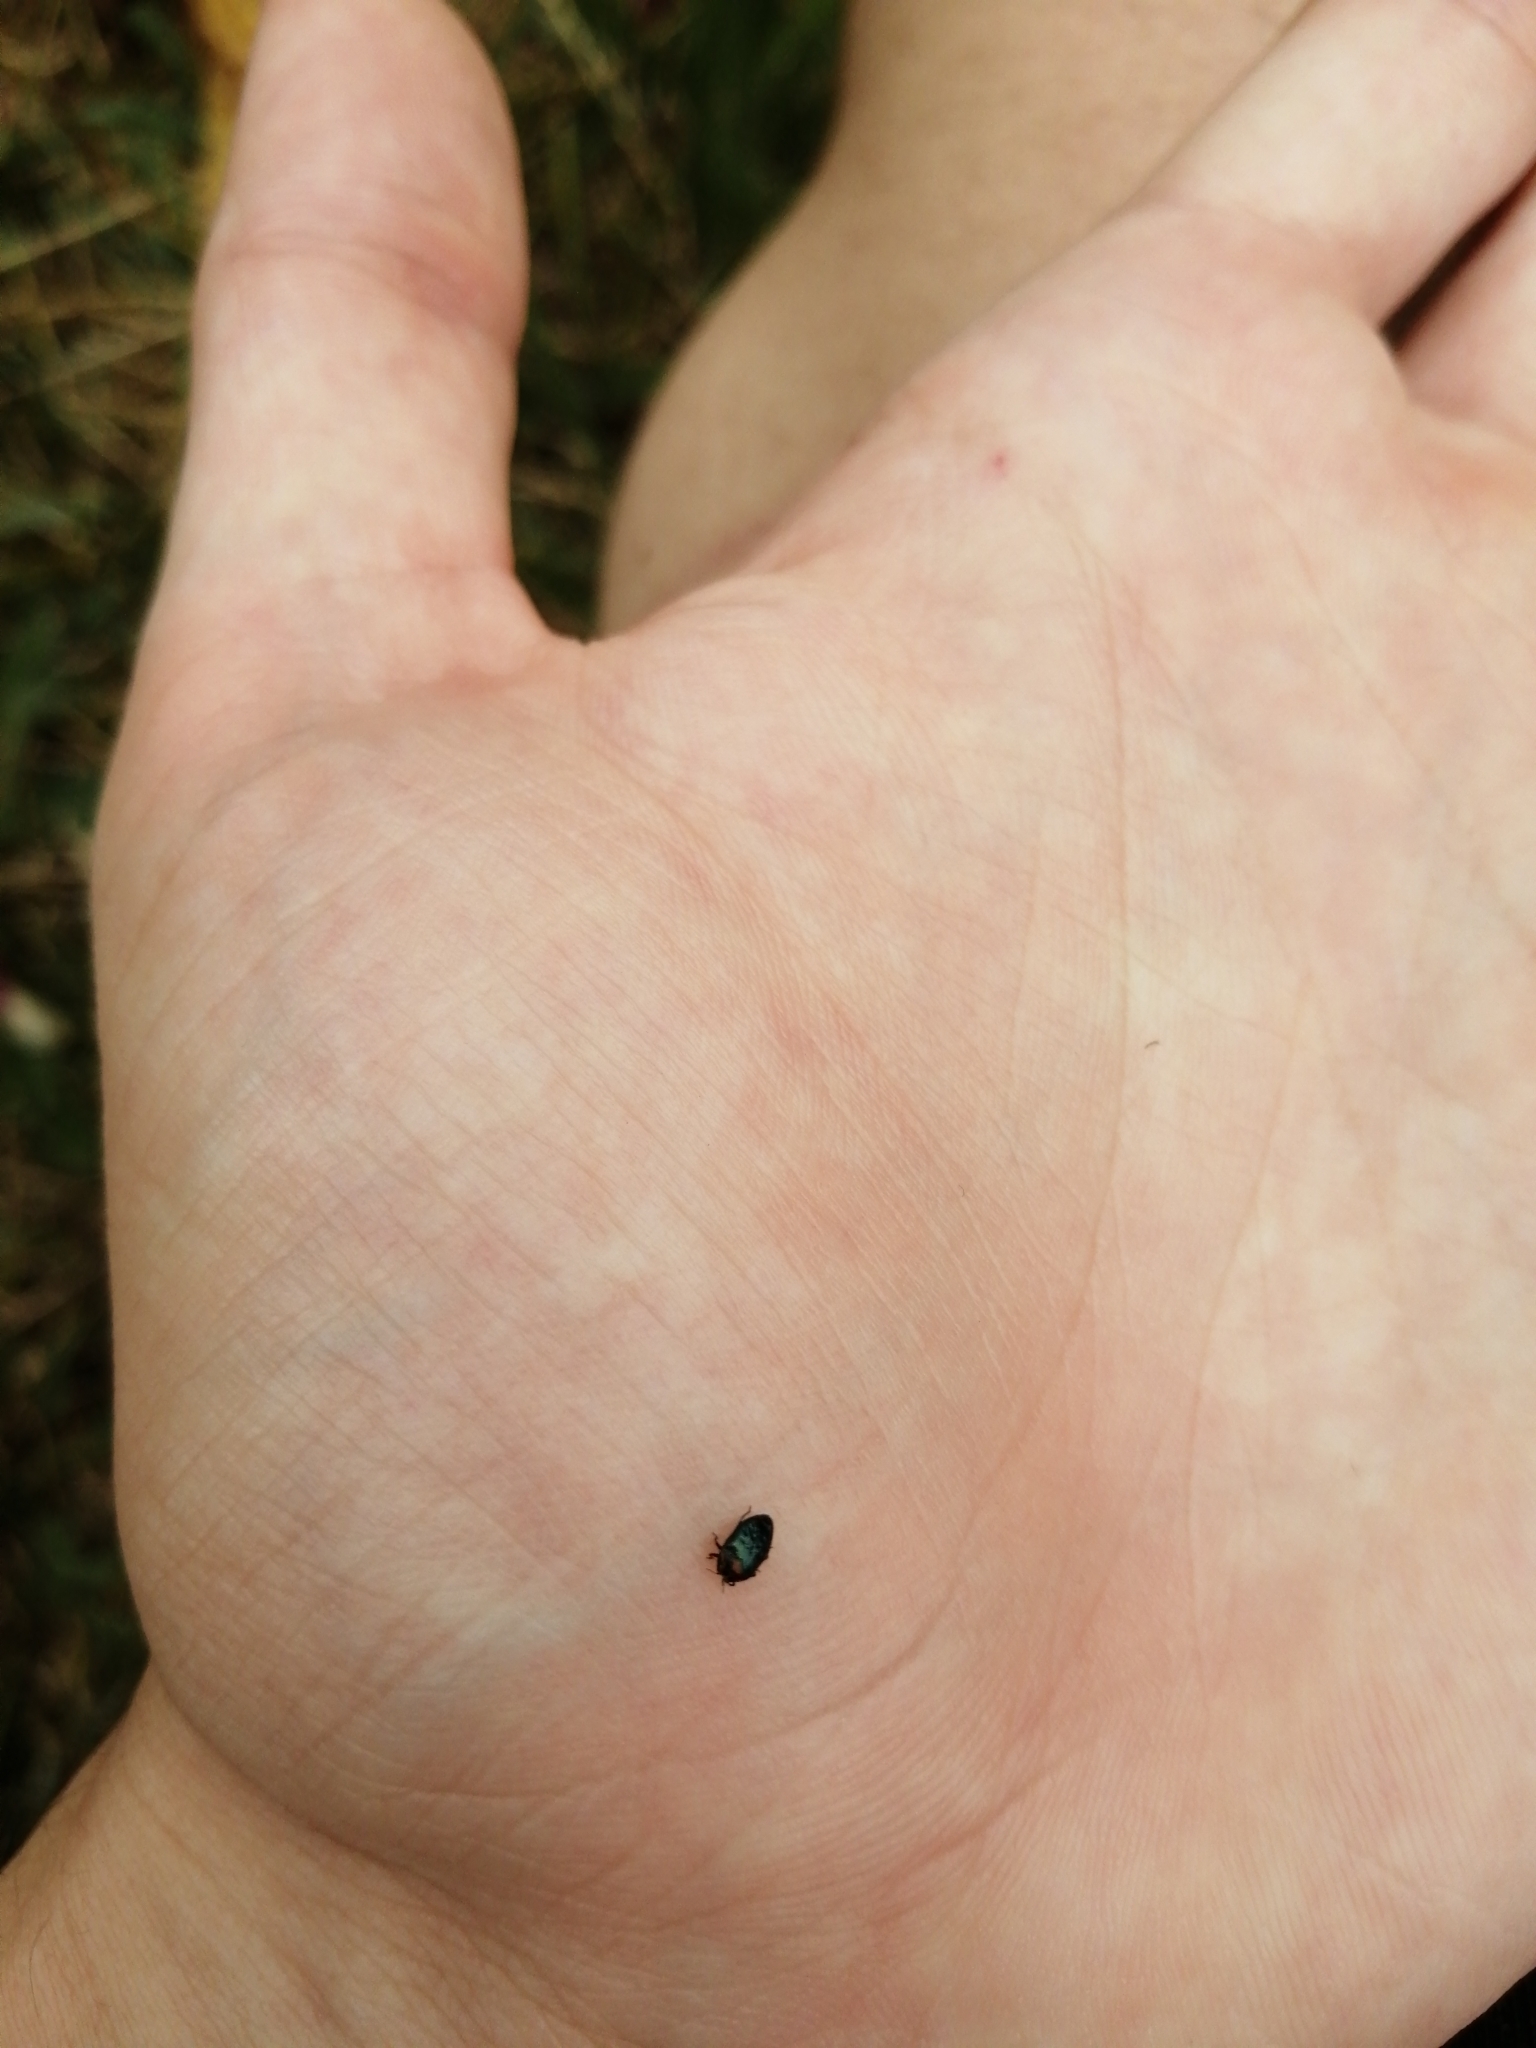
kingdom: Animalia
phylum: Arthropoda
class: Insecta
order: Coleoptera
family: Buprestidae
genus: Trachys
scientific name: Trachys troglodytiformis
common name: Metallic wood-boring beetle
